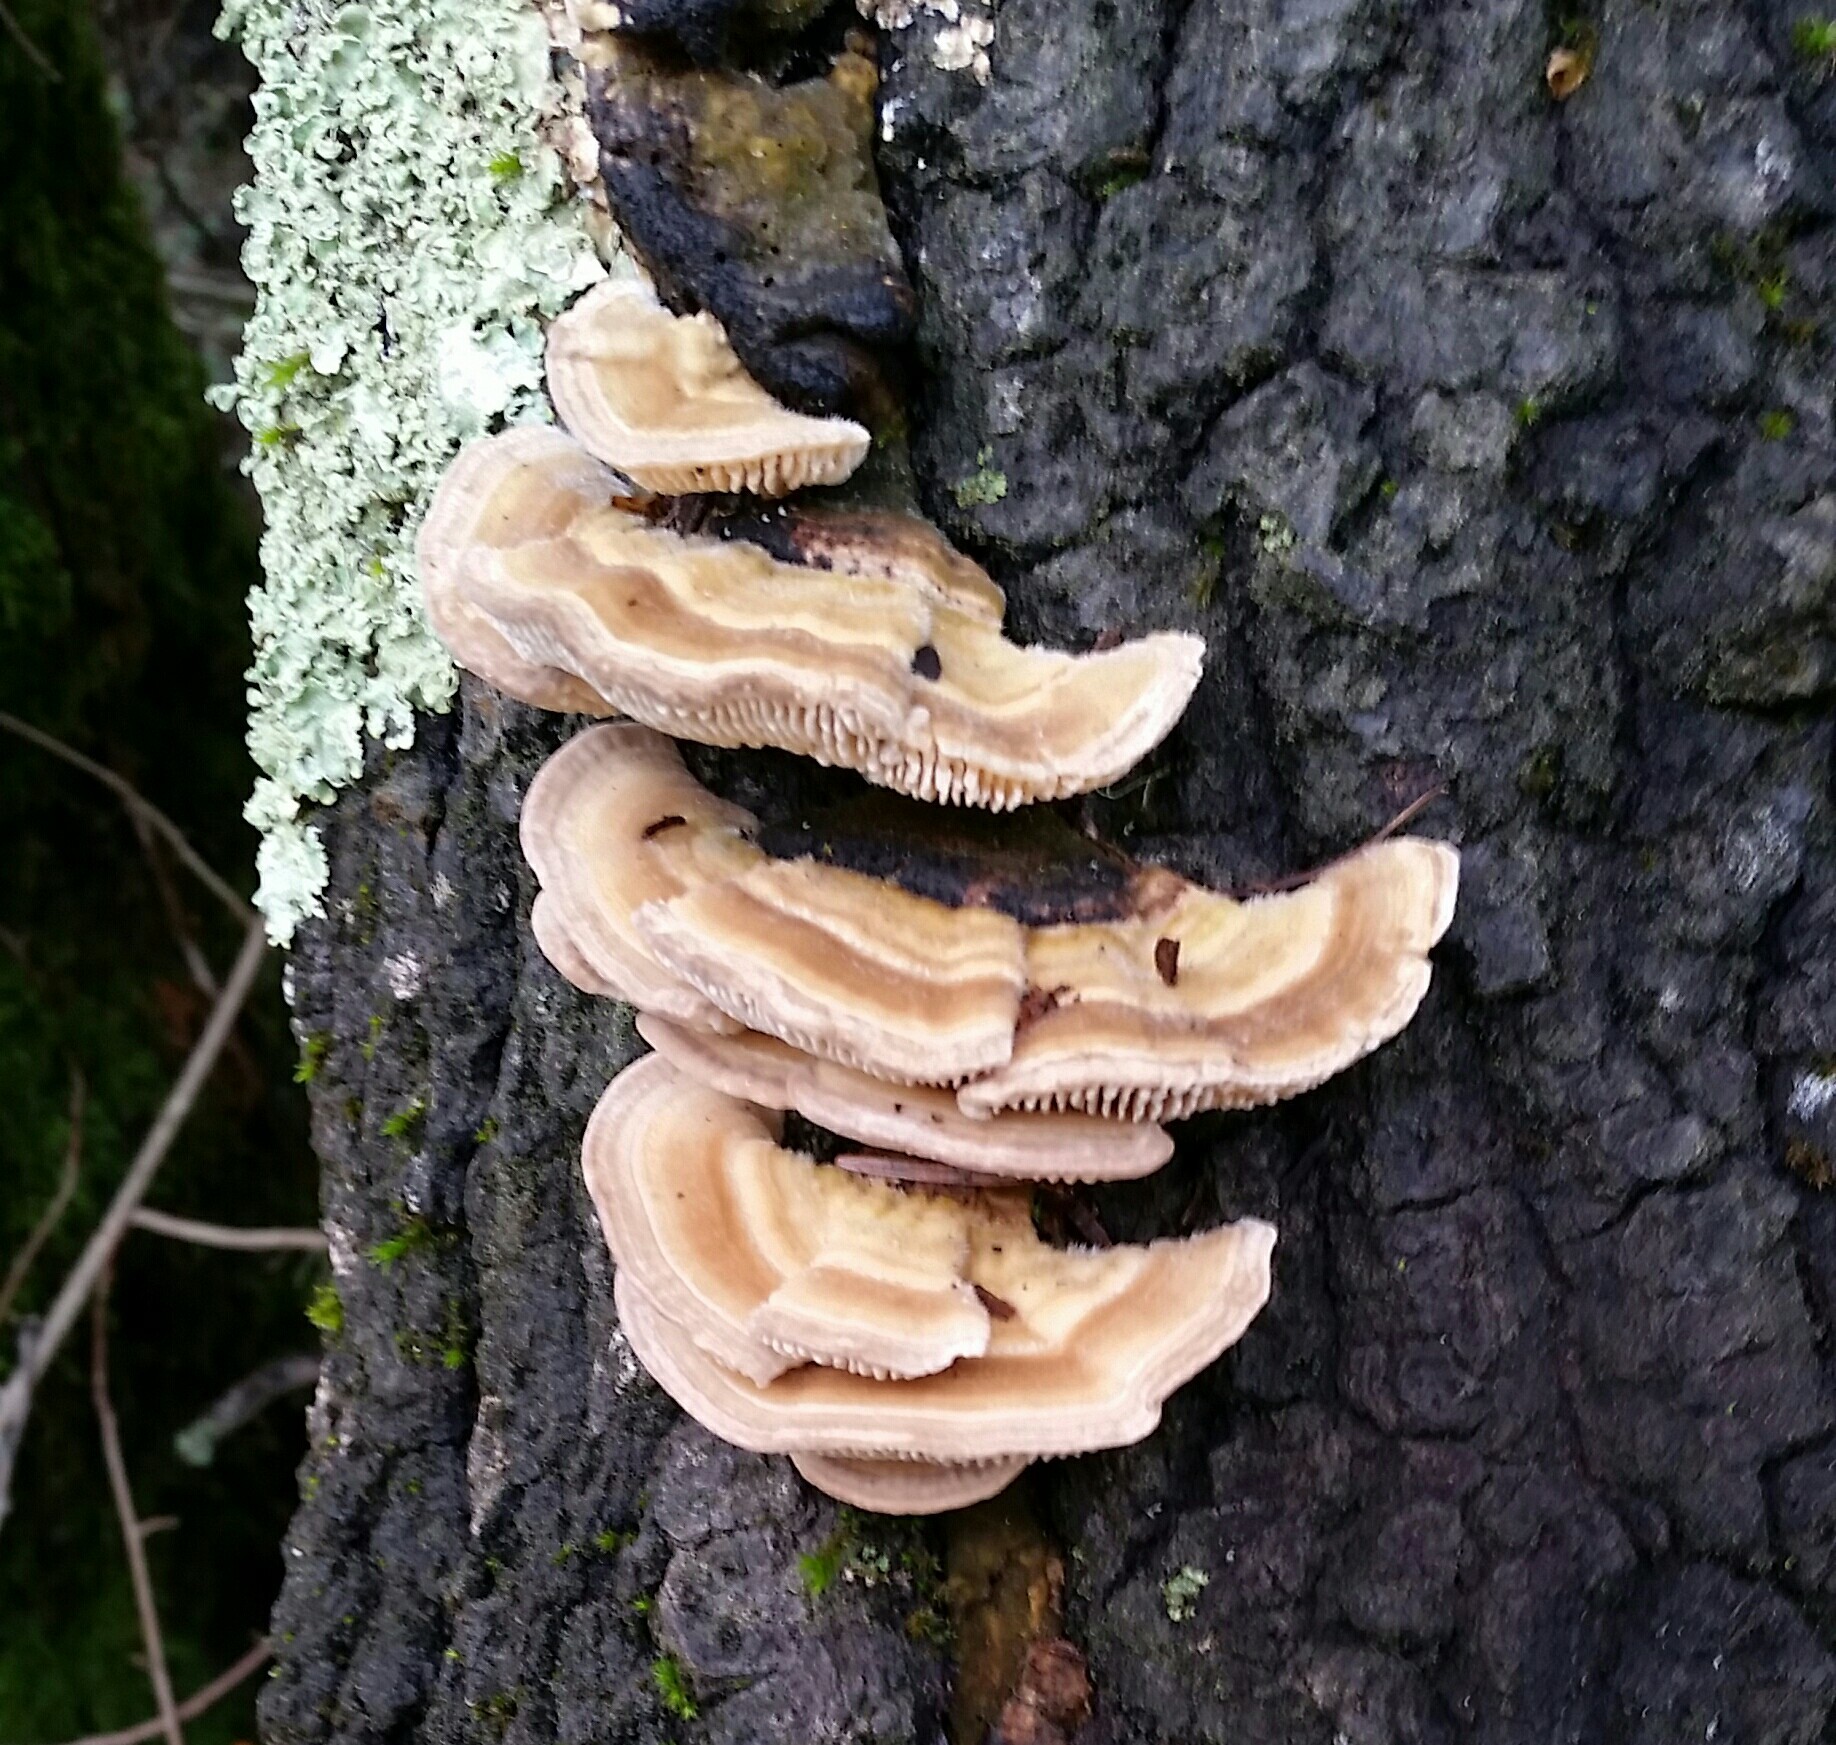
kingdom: Fungi
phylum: Basidiomycota
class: Agaricomycetes
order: Polyporales
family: Polyporaceae
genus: Lenzites
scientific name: Lenzites betulinus
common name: Birch mazegill
